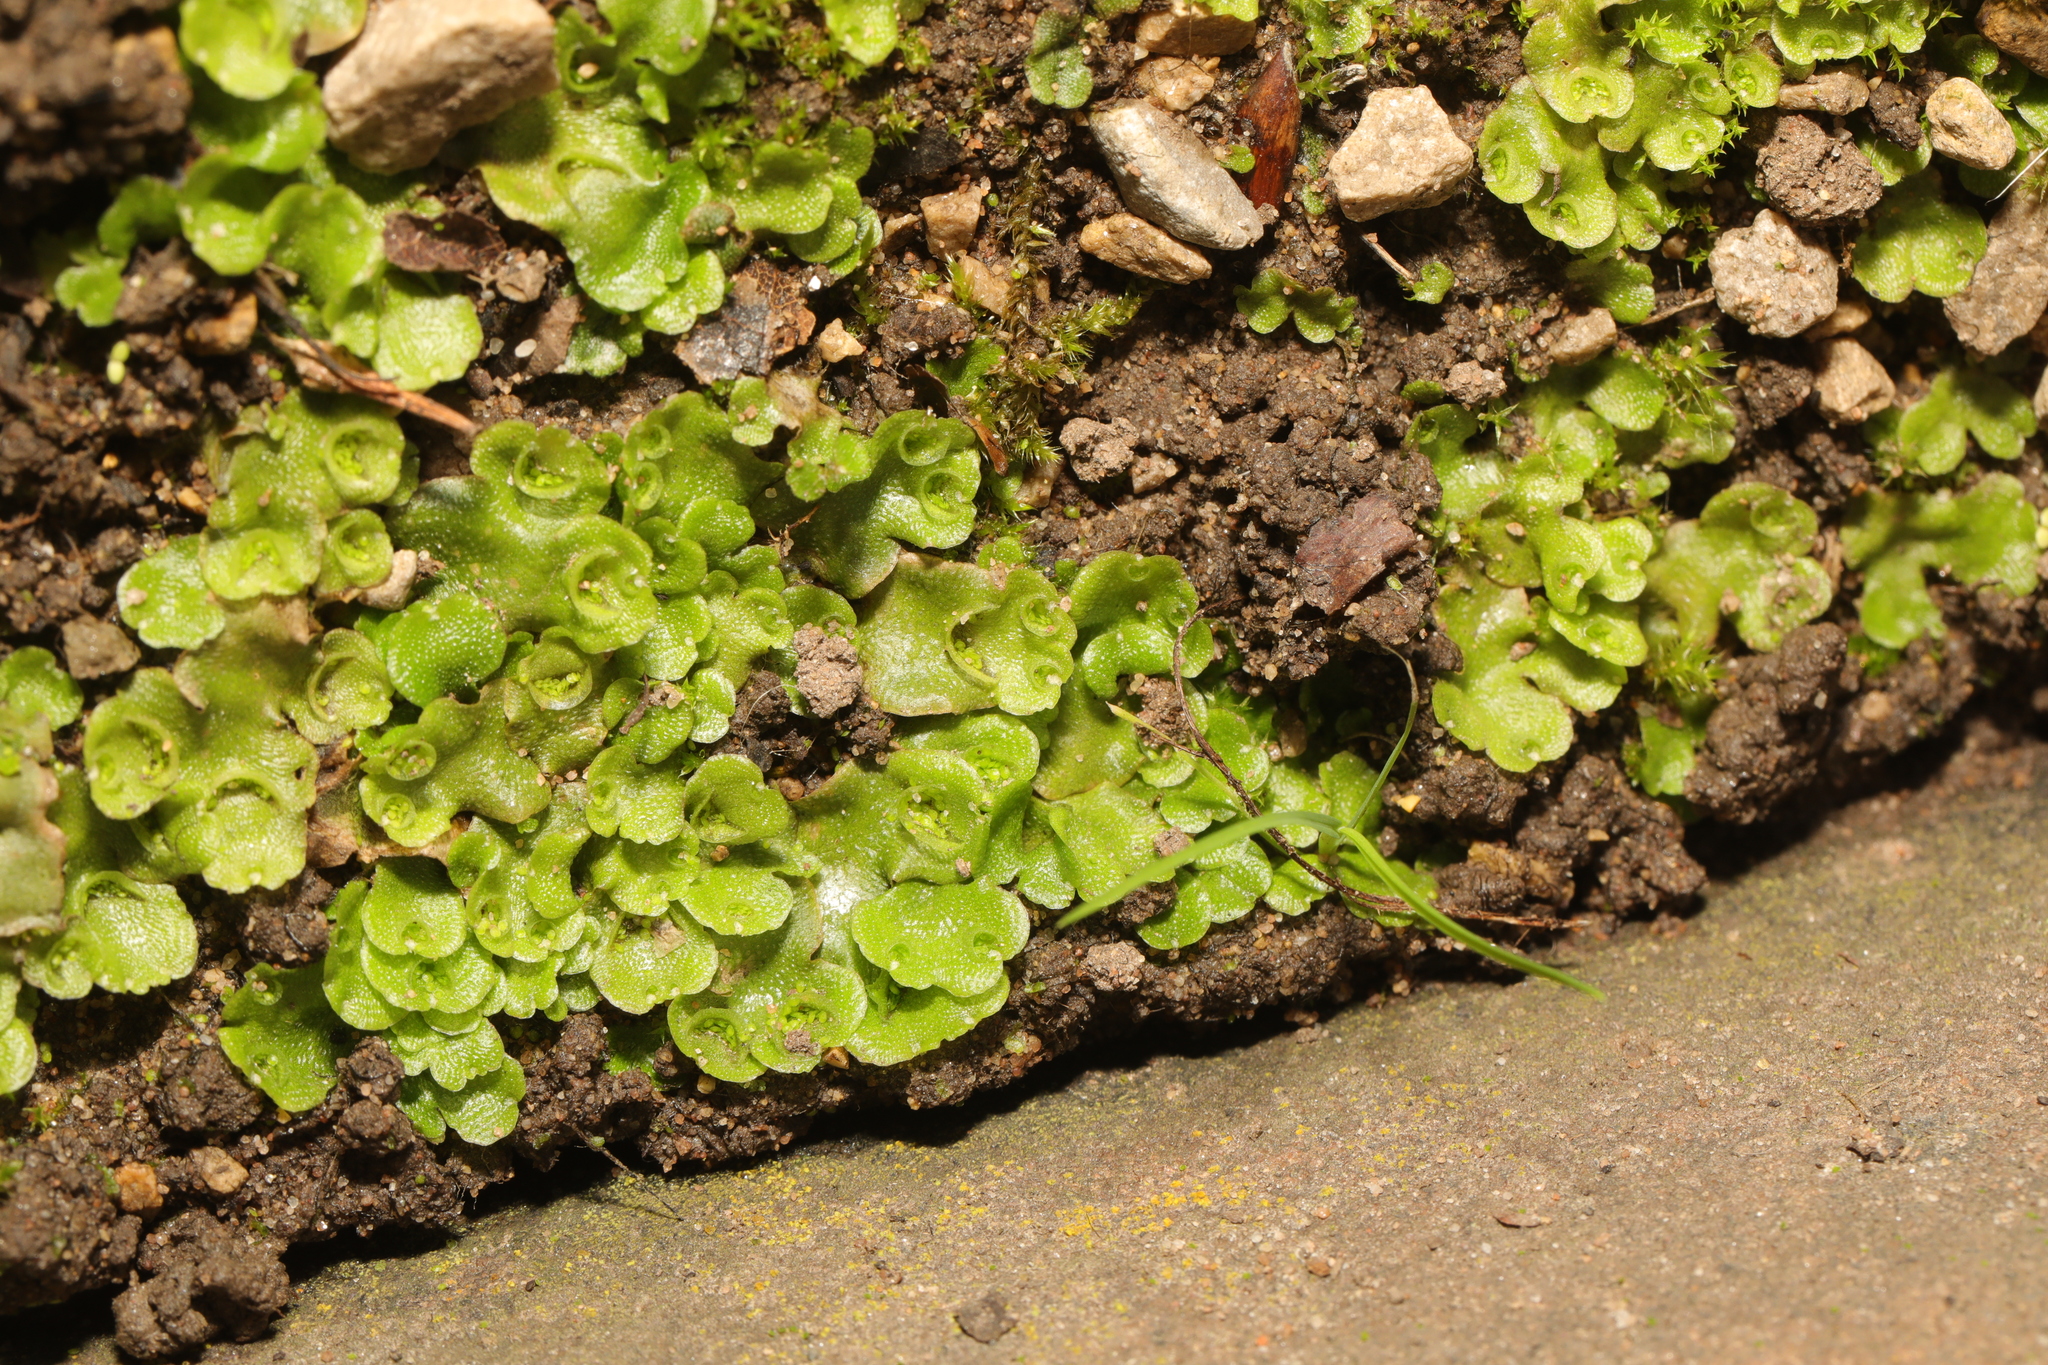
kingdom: Plantae
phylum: Marchantiophyta
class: Marchantiopsida
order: Lunulariales
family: Lunulariaceae
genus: Lunularia
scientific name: Lunularia cruciata
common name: Crescent-cup liverwort
